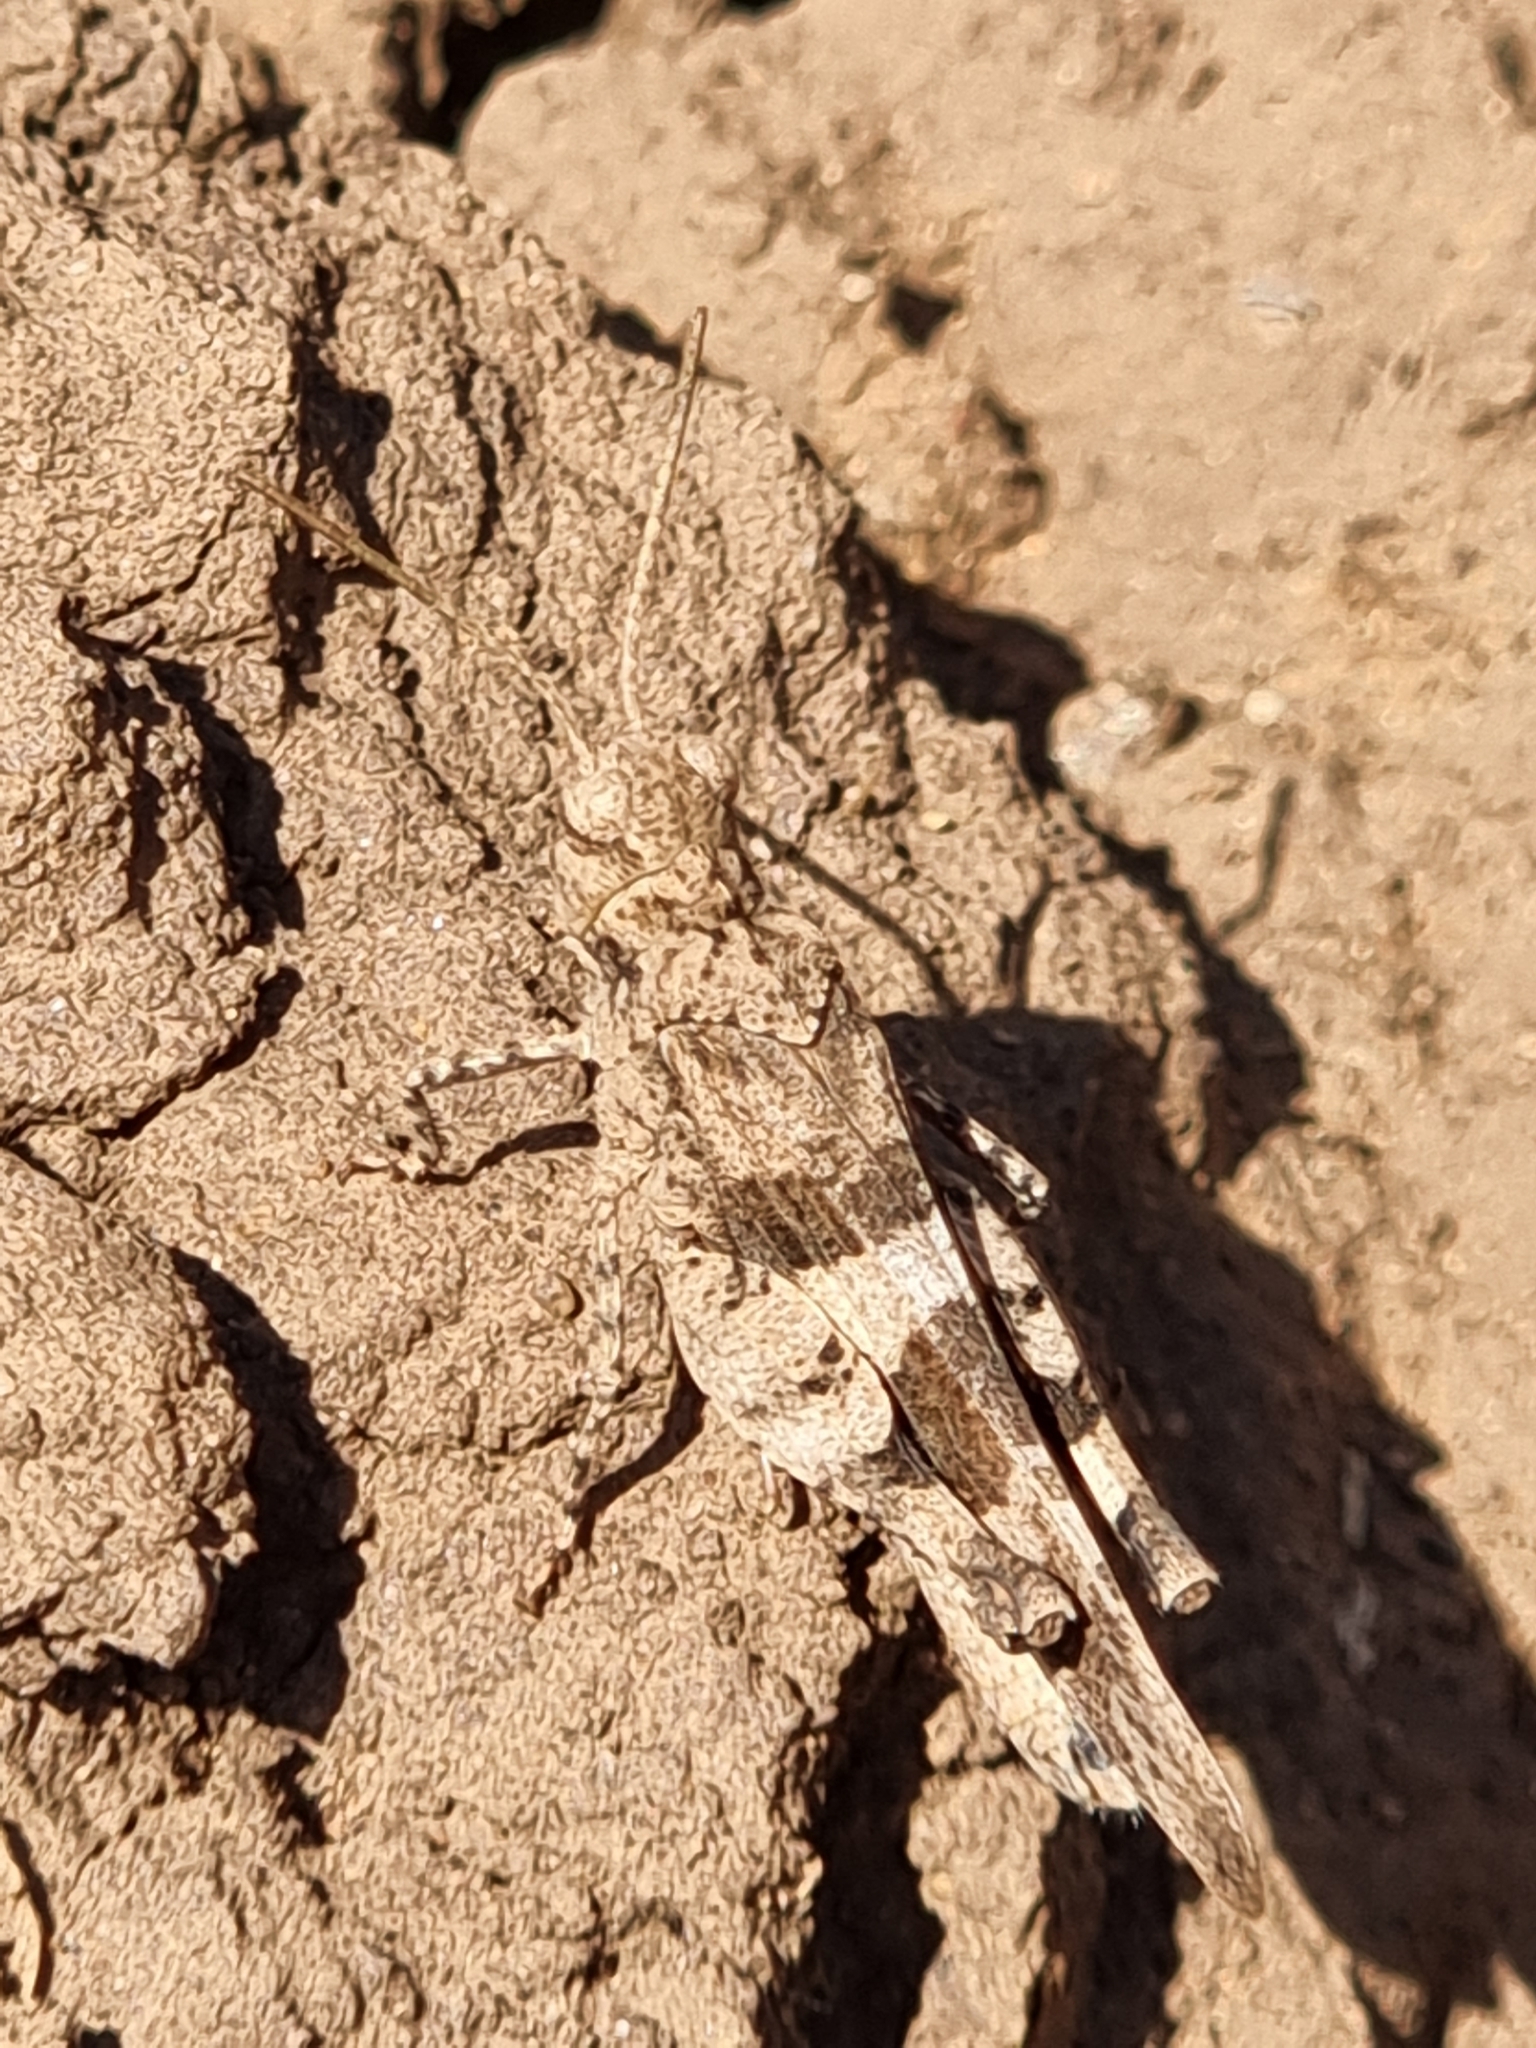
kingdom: Animalia
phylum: Arthropoda
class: Insecta
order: Orthoptera
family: Acrididae
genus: Oedipoda
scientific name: Oedipoda caerulescens
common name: Blue-winged grasshopper
